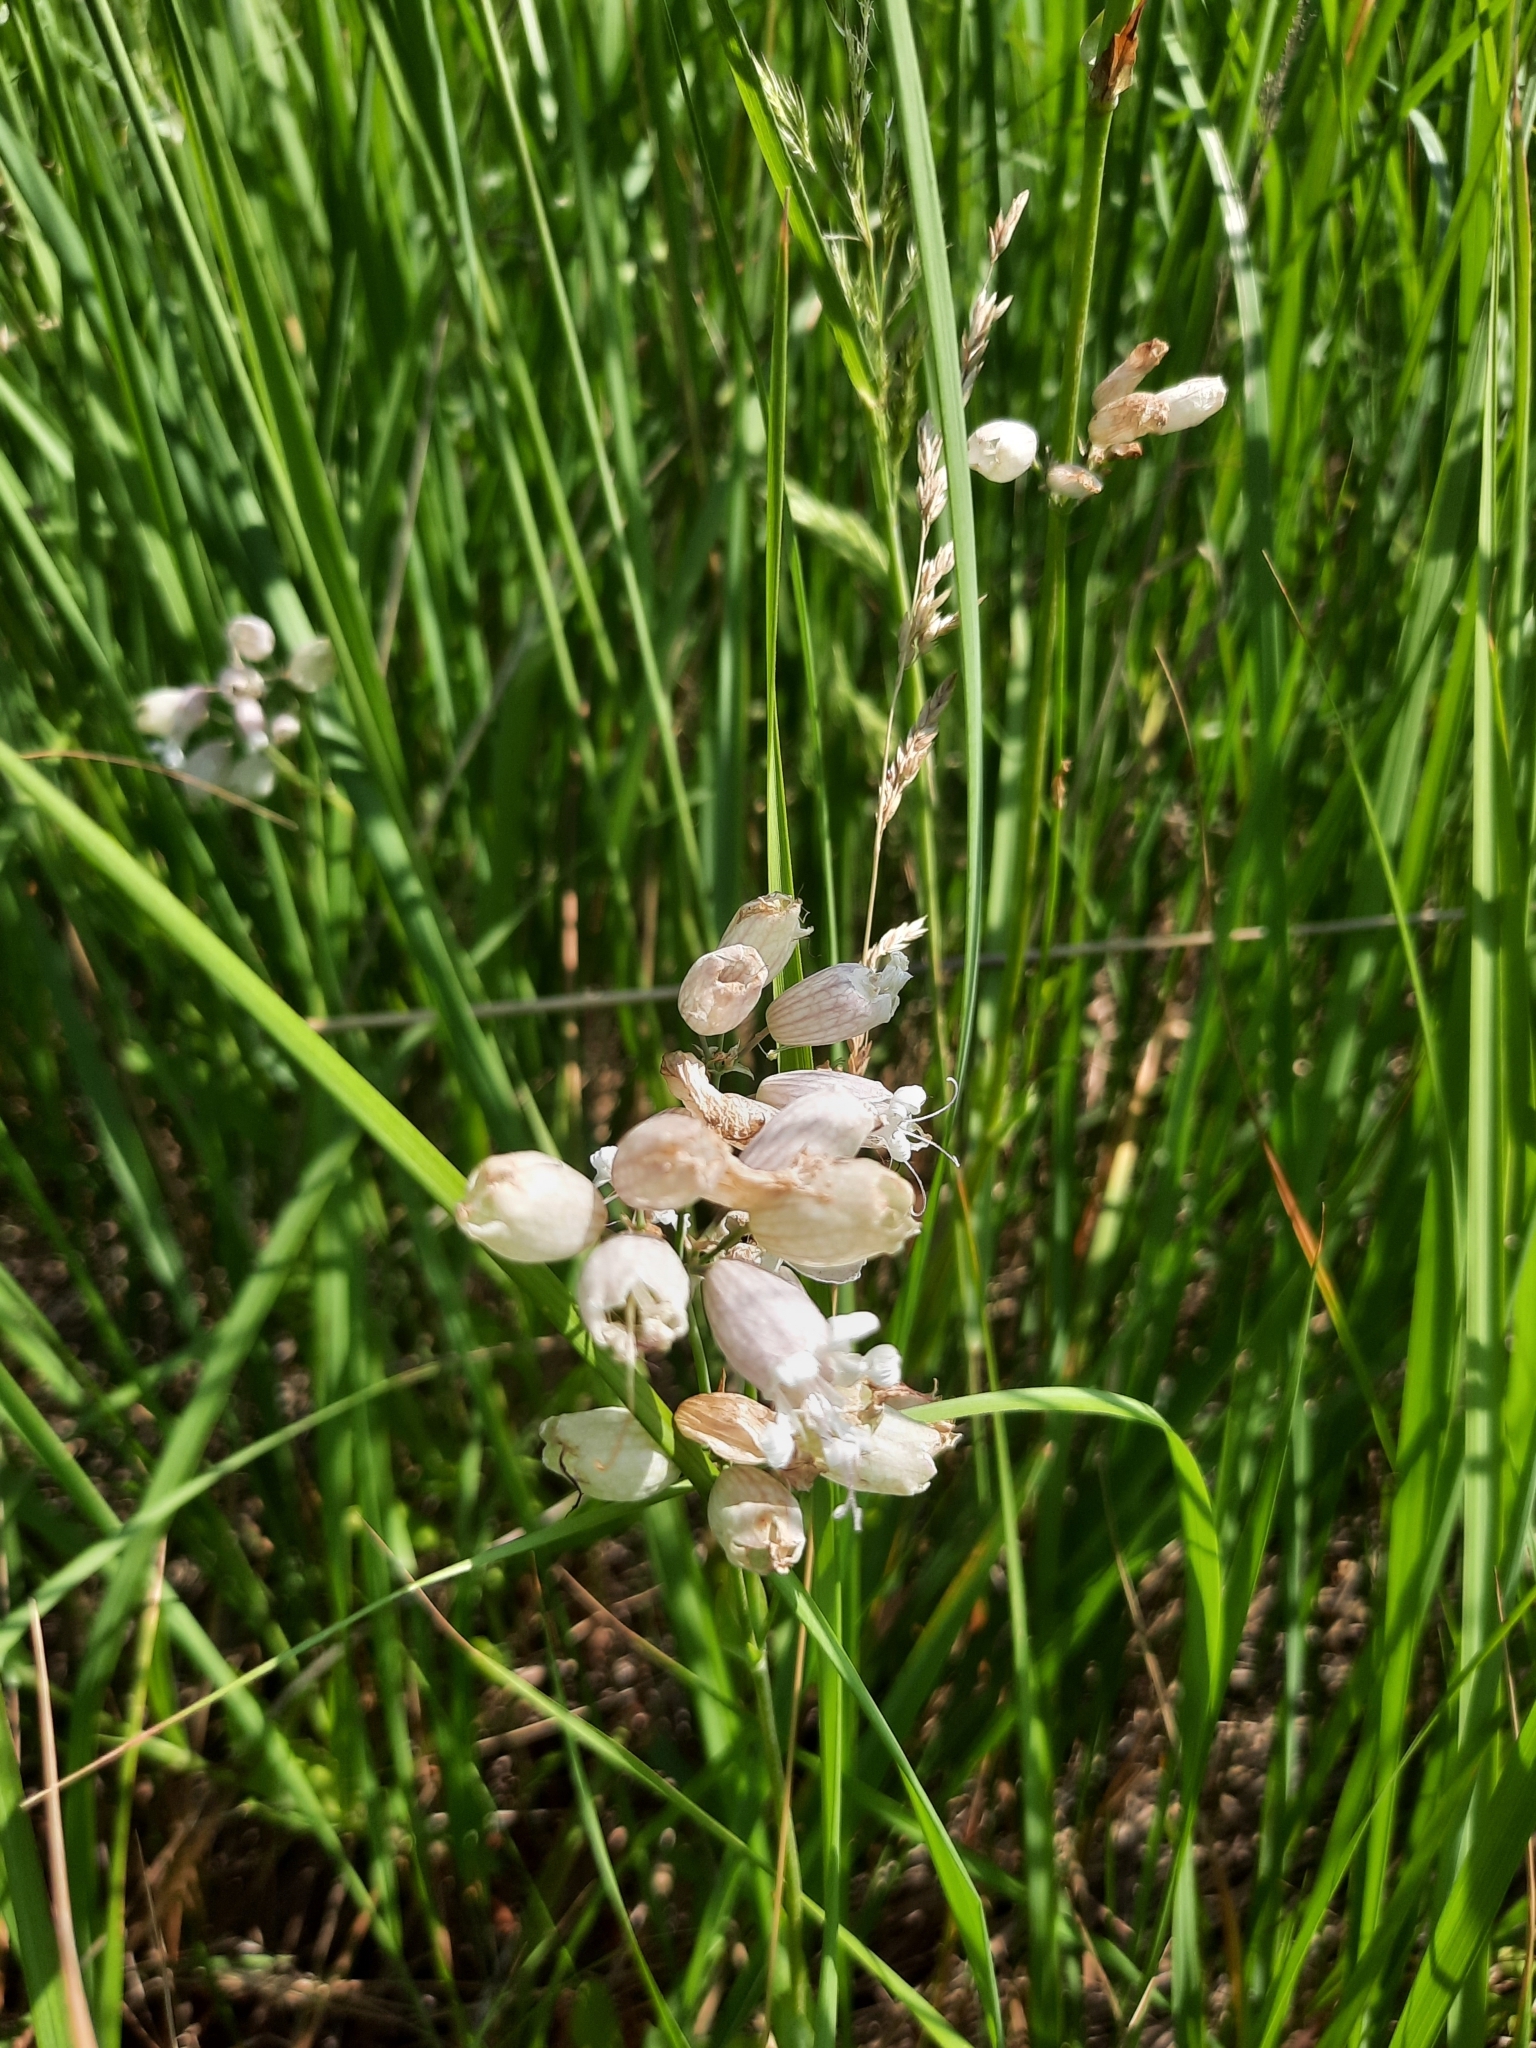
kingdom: Plantae
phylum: Tracheophyta
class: Magnoliopsida
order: Caryophyllales
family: Caryophyllaceae
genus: Silene
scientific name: Silene vulgaris
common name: Bladder campion
